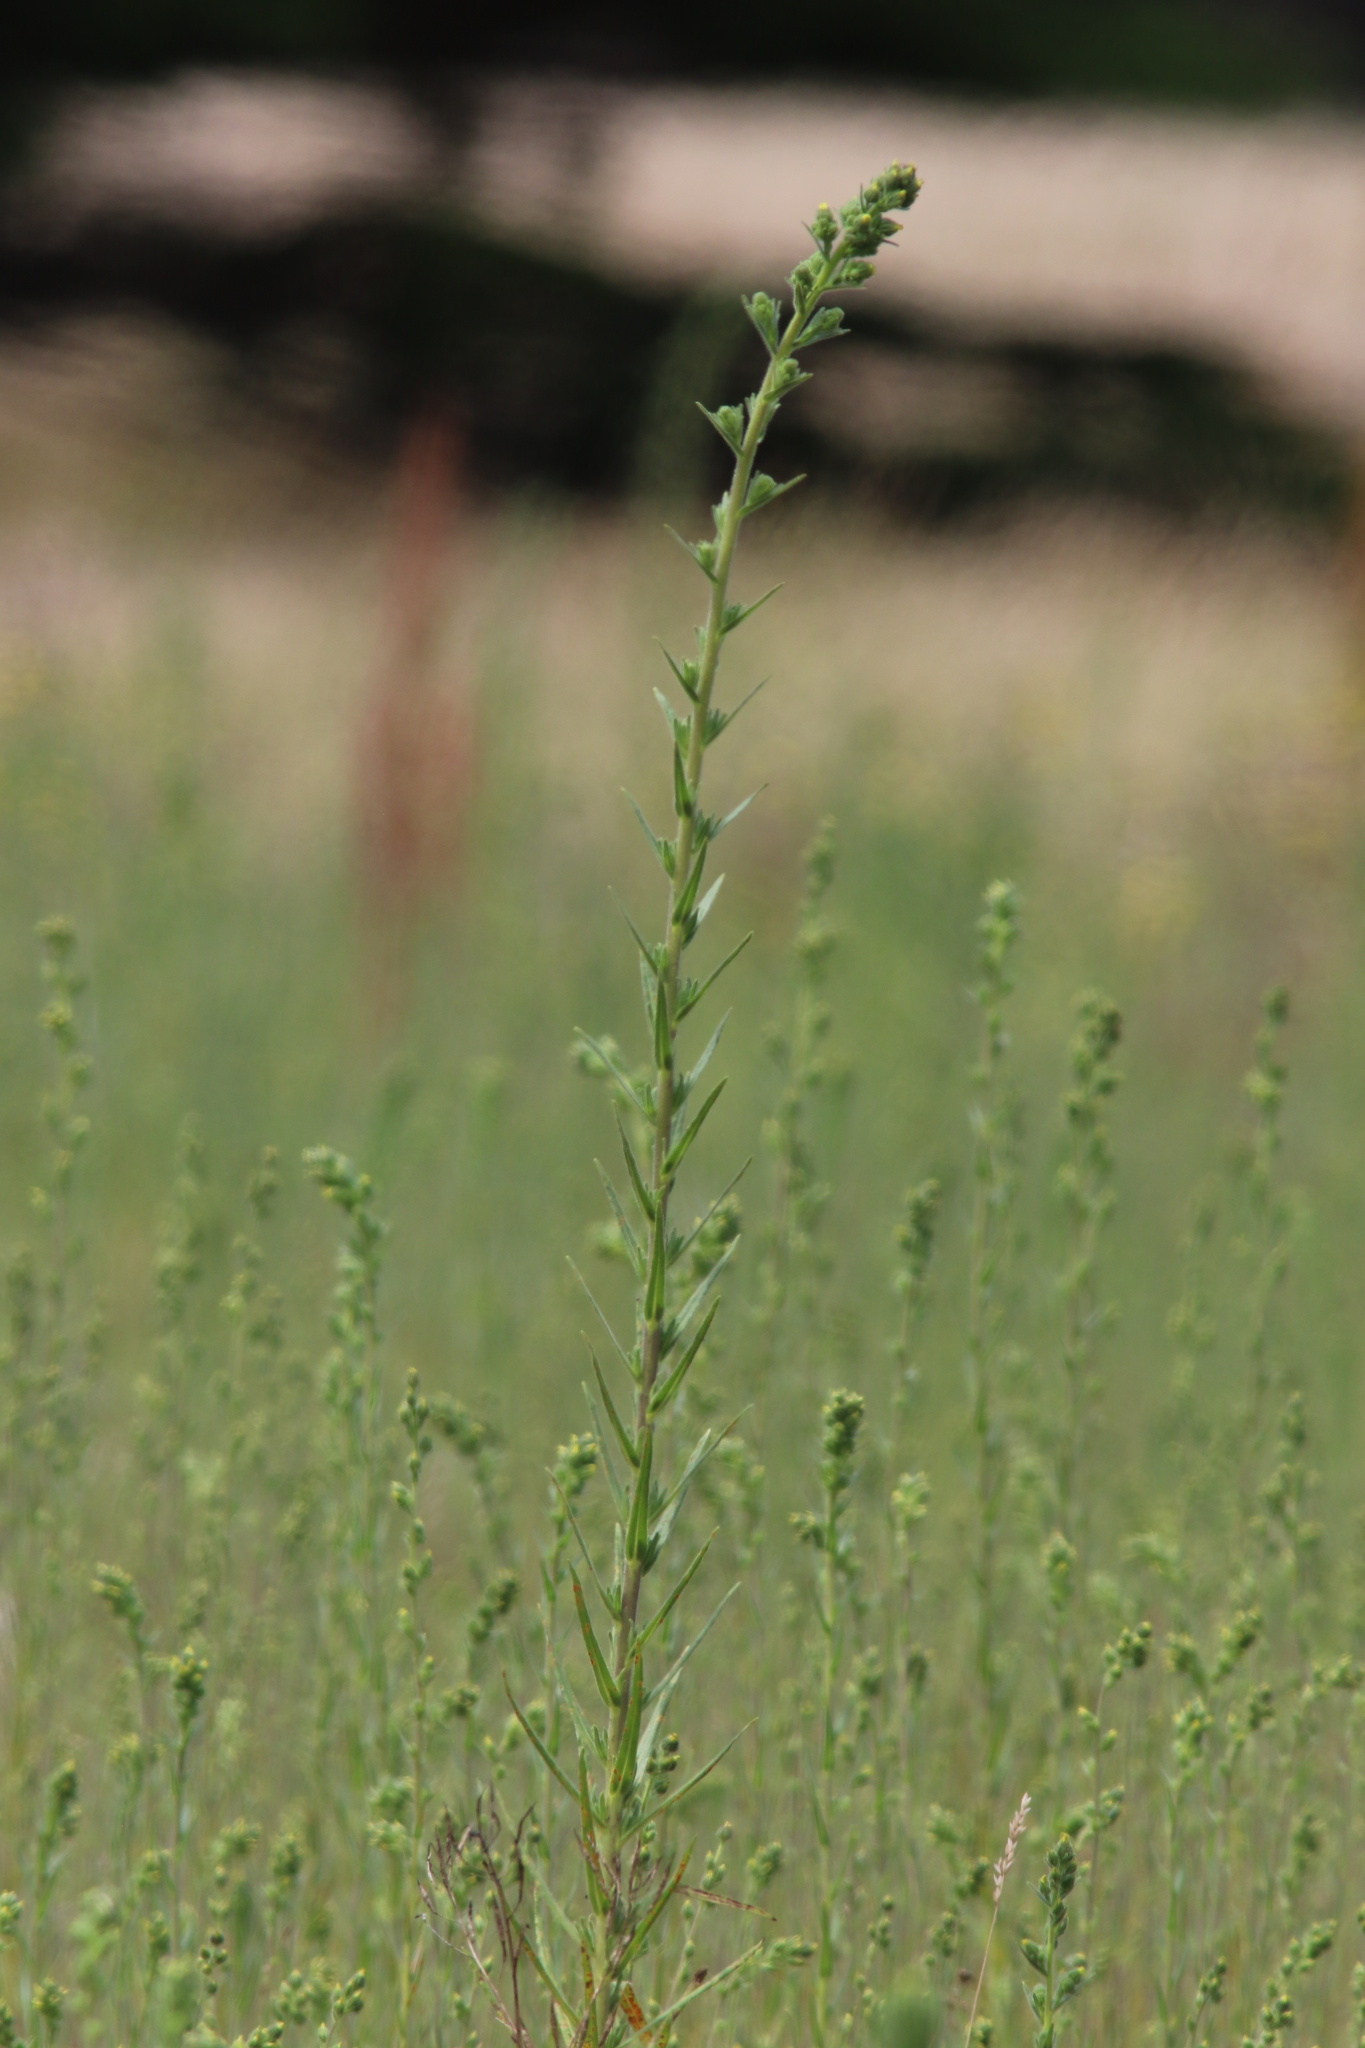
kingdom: Plantae
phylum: Tracheophyta
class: Magnoliopsida
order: Asterales
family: Asteraceae
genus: Madia
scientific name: Madia sativa
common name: Coast tarweed
